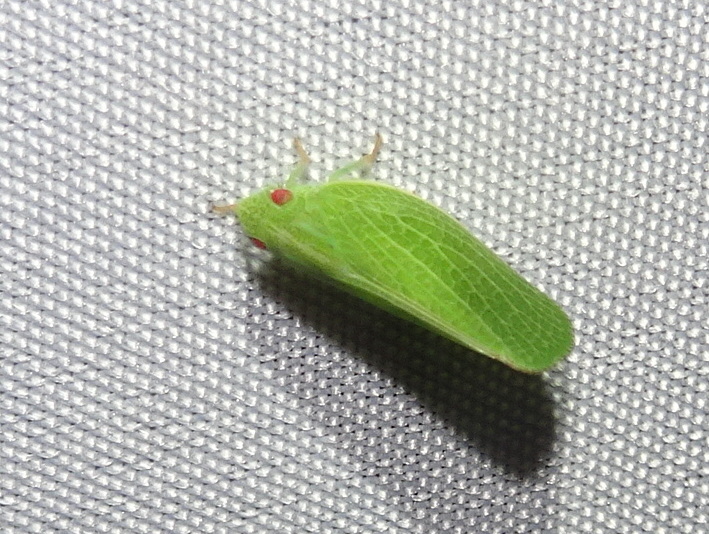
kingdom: Animalia
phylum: Arthropoda
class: Insecta
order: Hemiptera
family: Acanaloniidae
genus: Acanalonia
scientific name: Acanalonia conica
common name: Green cone-headed planthopper
